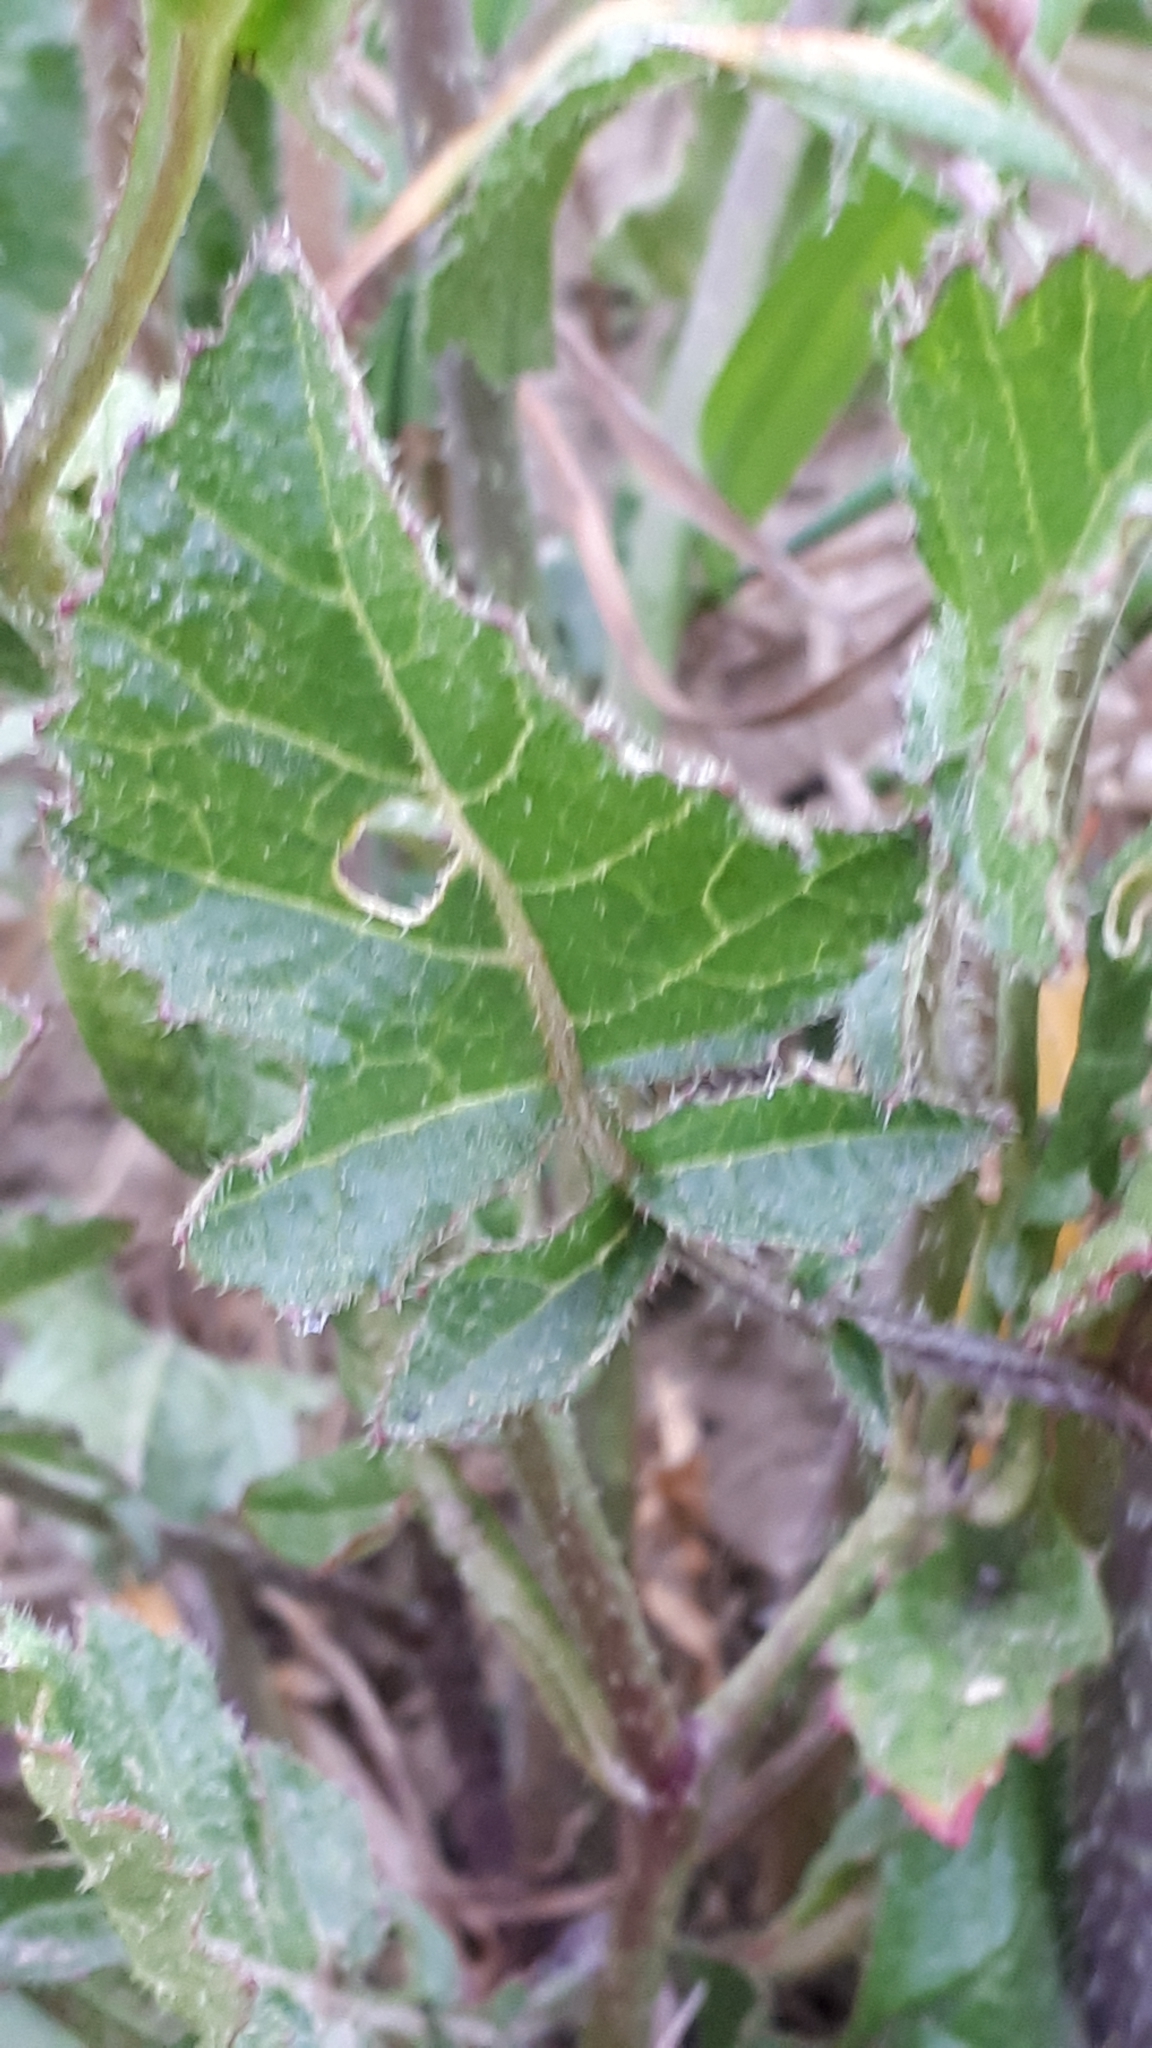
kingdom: Plantae
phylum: Tracheophyta
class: Magnoliopsida
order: Brassicales
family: Brassicaceae
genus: Raphanus
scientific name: Raphanus raphanistrum
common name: Wild radish
